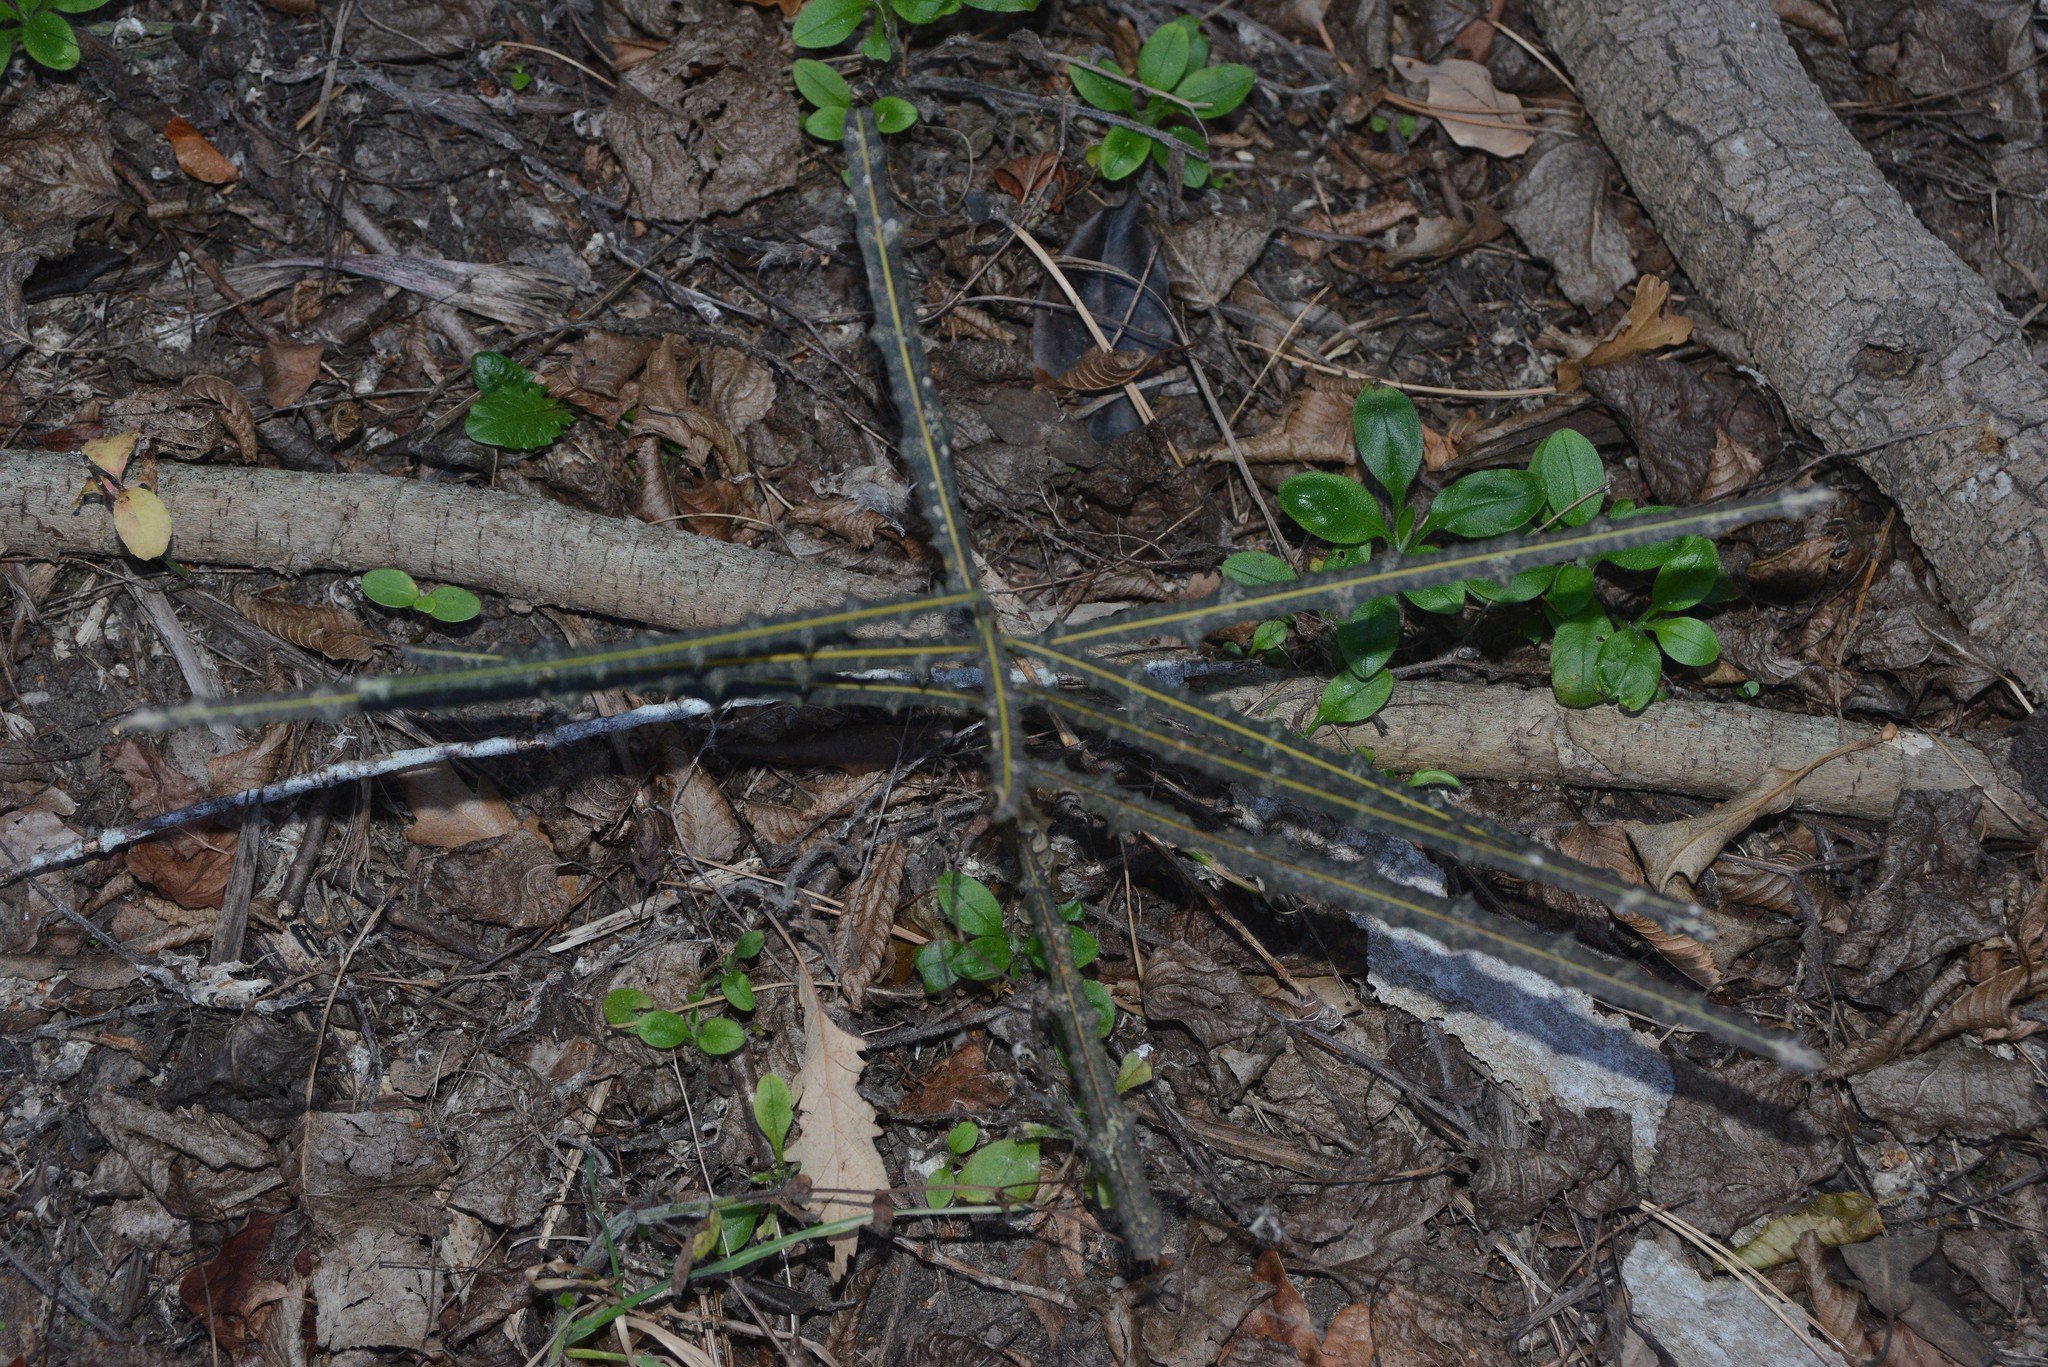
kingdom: Plantae
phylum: Tracheophyta
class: Magnoliopsida
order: Apiales
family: Araliaceae
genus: Pseudopanax
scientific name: Pseudopanax crassifolius
